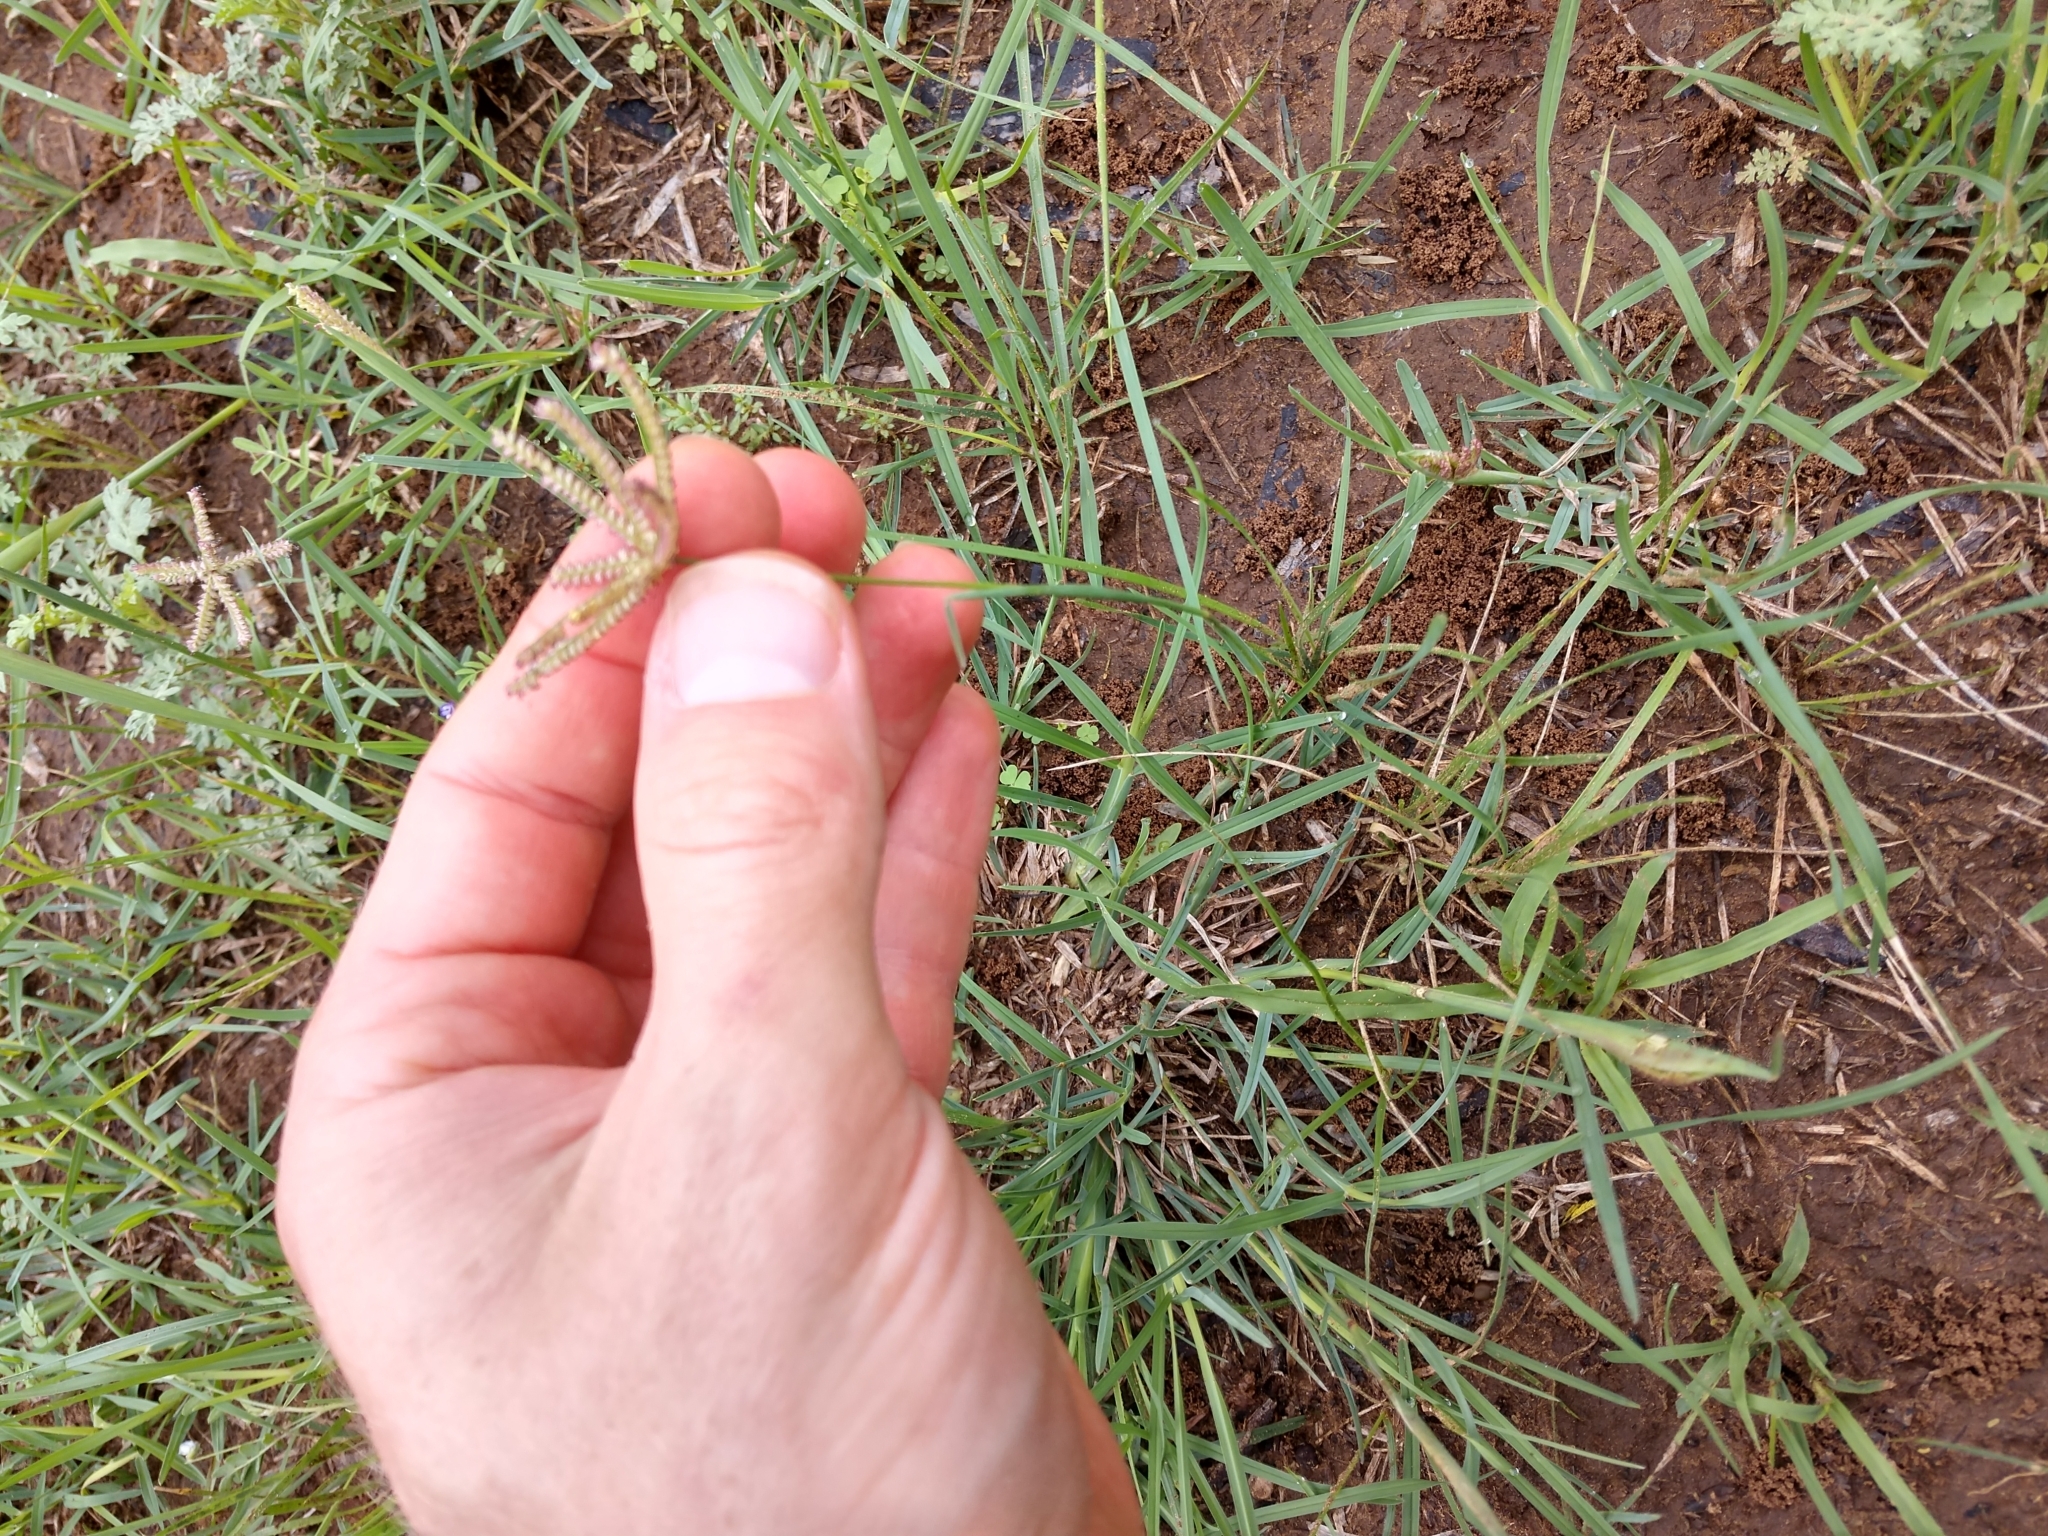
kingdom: Plantae
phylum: Tracheophyta
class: Liliopsida
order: Poales
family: Poaceae
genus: Chloris
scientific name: Chloris cucullata
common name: Hooded windmill grass
